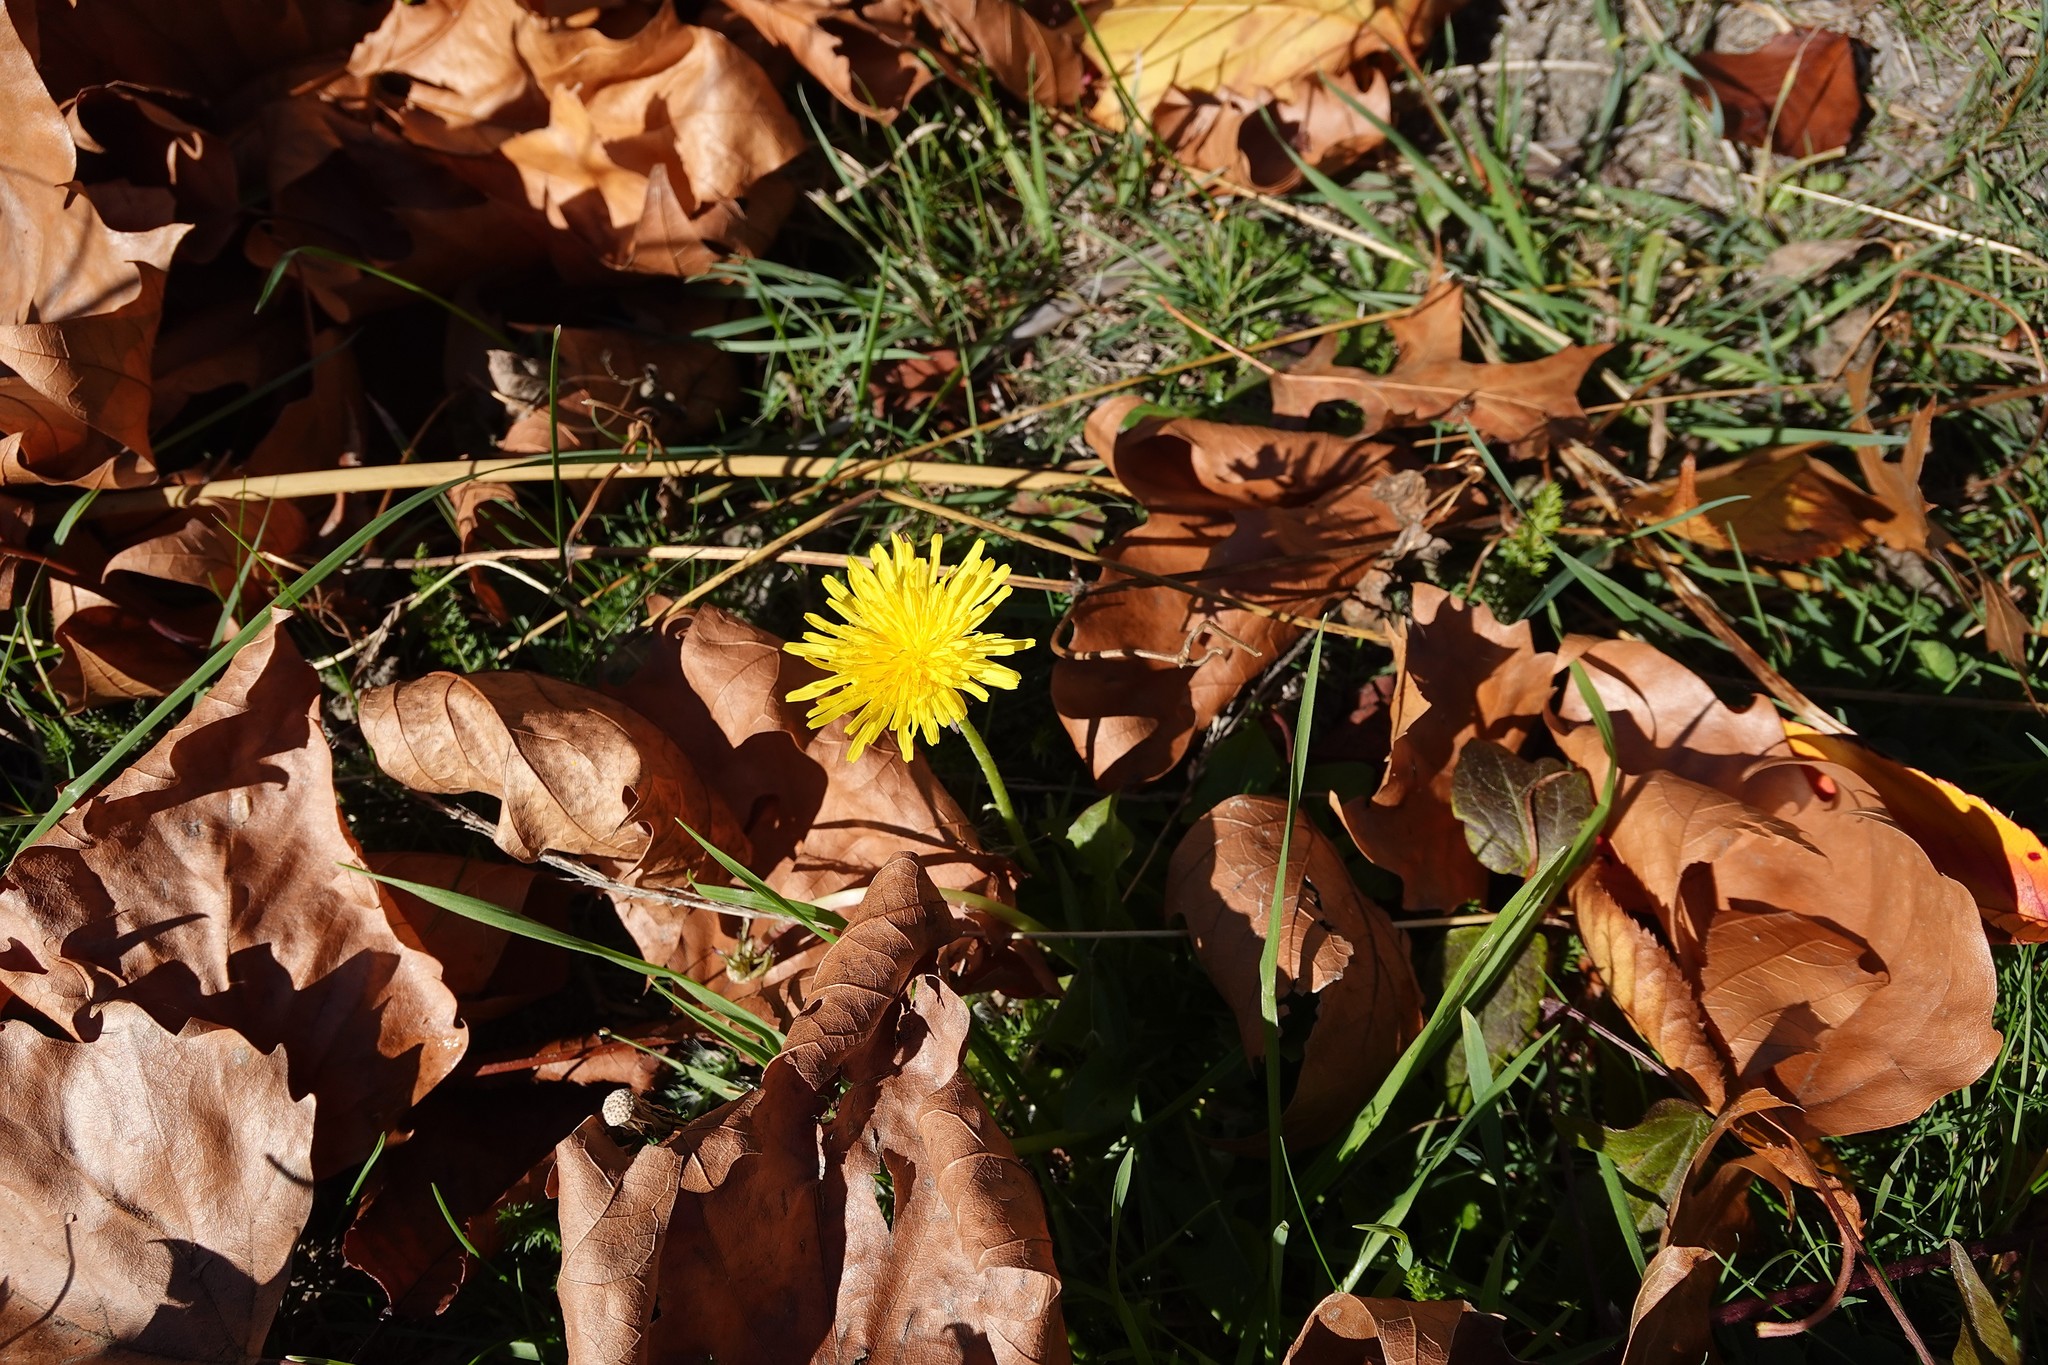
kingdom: Plantae
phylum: Tracheophyta
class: Magnoliopsida
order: Asterales
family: Asteraceae
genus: Taraxacum
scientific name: Taraxacum officinale
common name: Common dandelion
